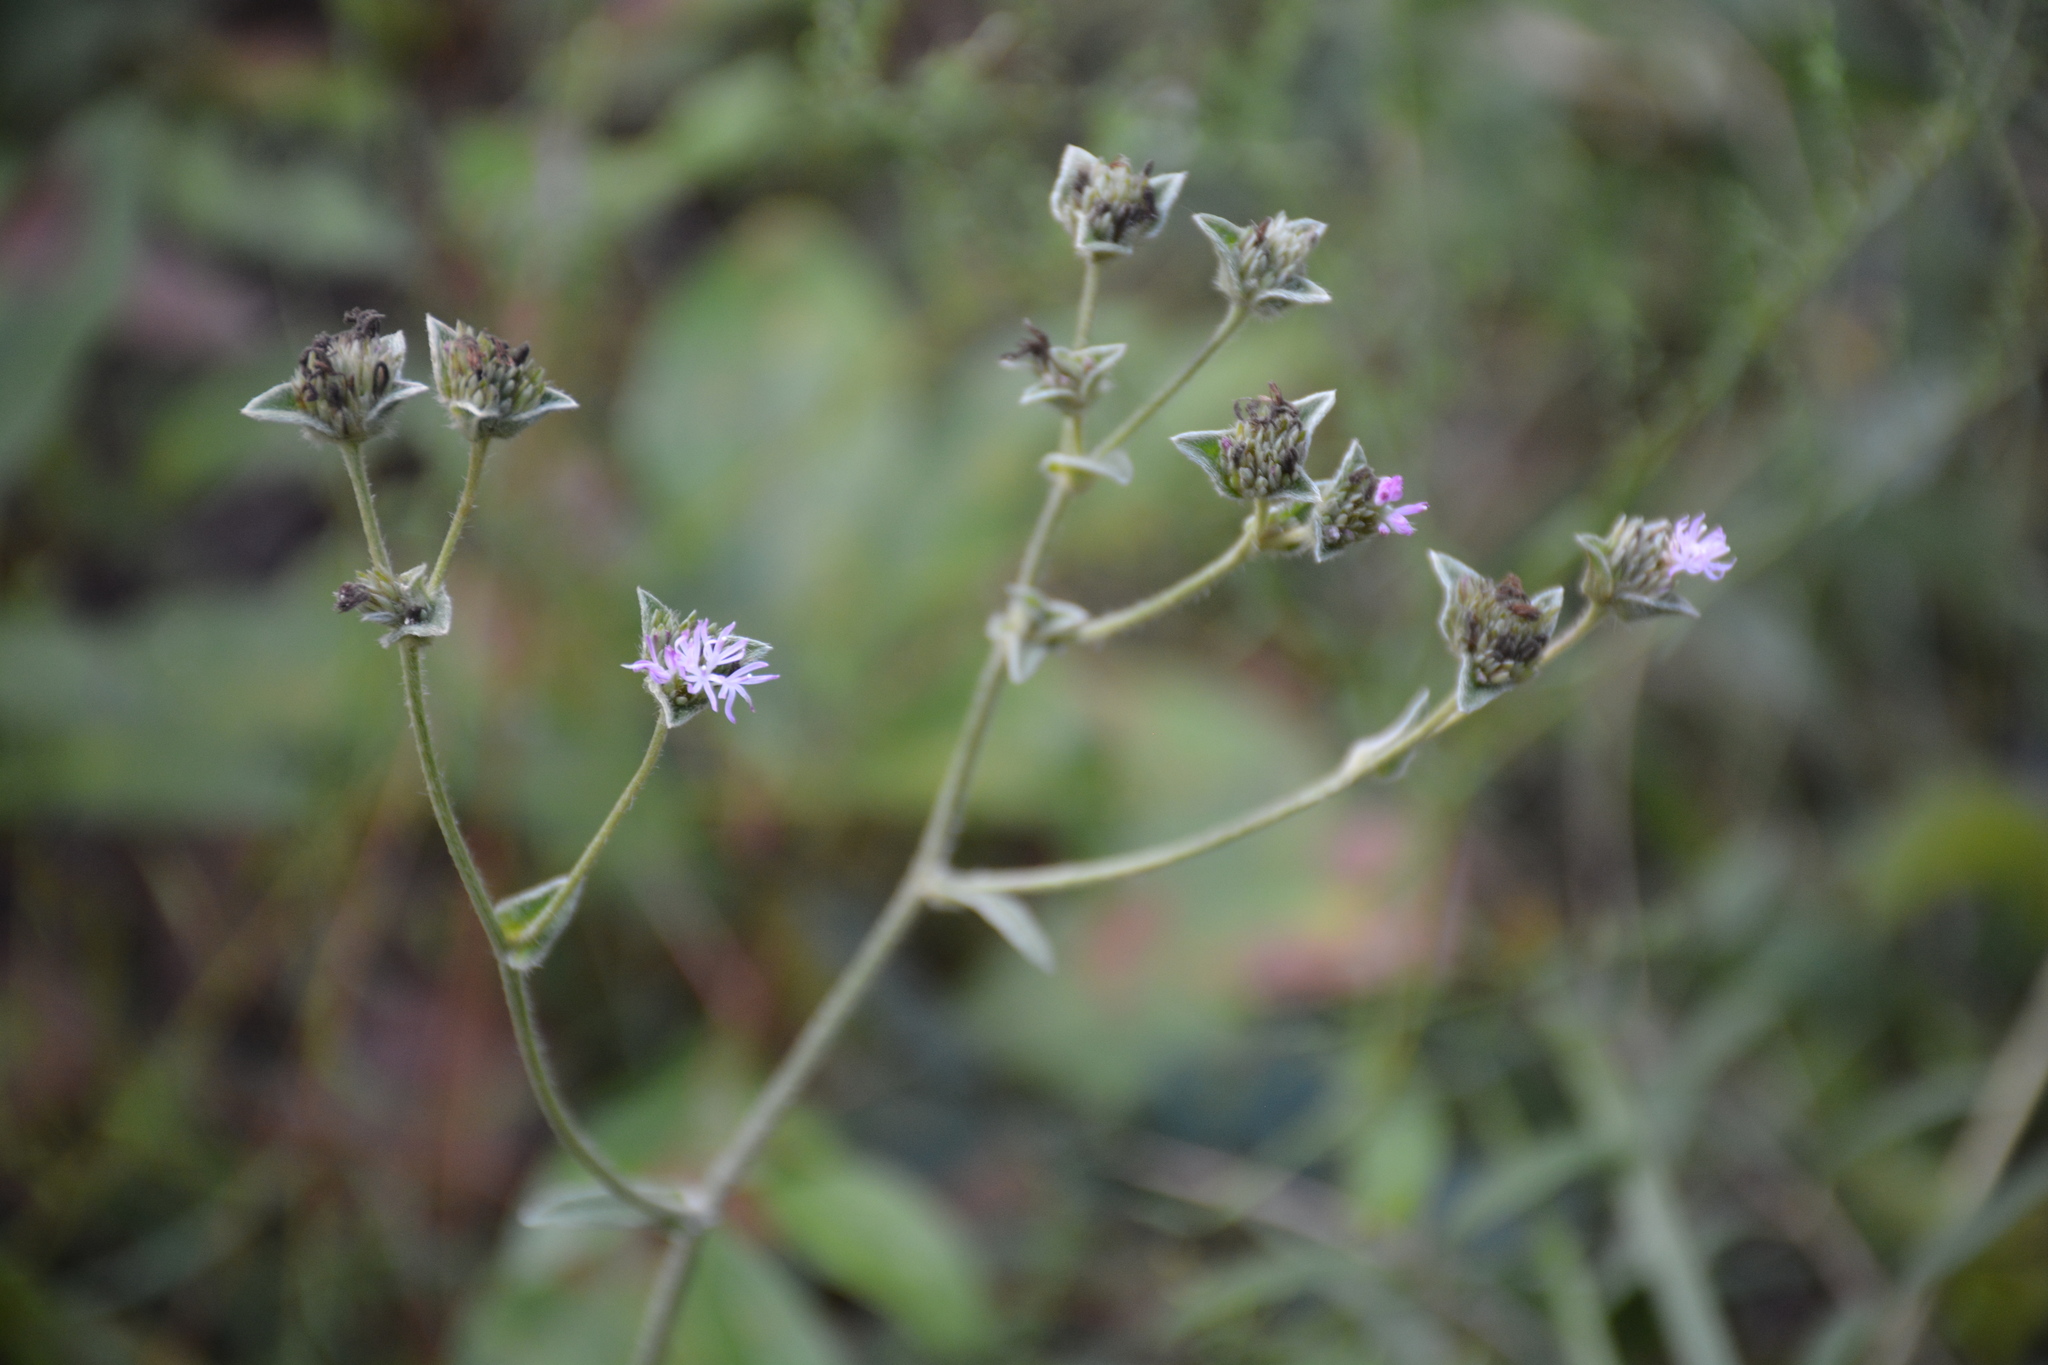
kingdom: Plantae
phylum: Tracheophyta
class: Magnoliopsida
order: Asterales
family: Asteraceae
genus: Elephantopus
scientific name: Elephantopus tomentosus
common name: Tobacco-weed
